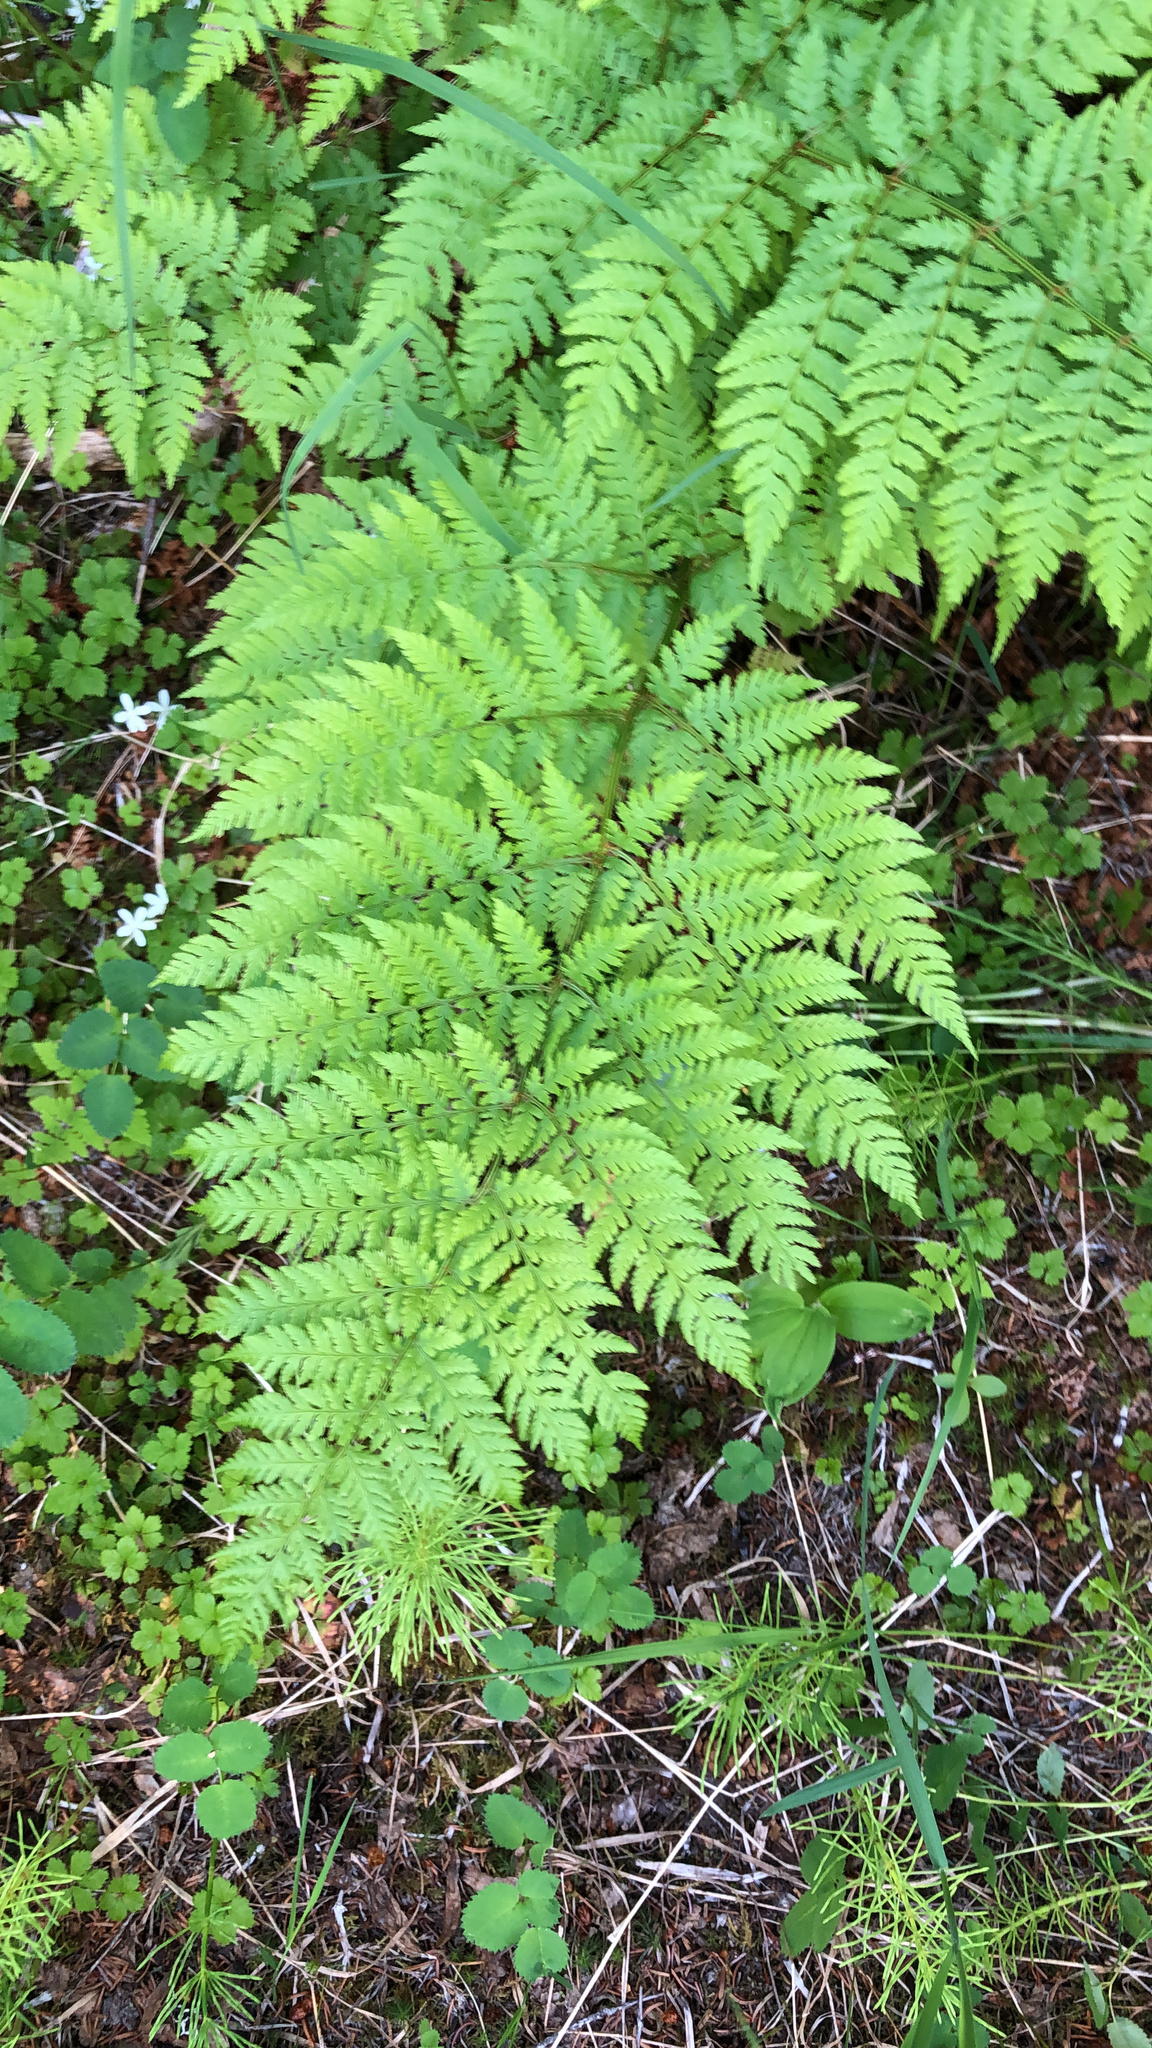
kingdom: Plantae
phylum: Tracheophyta
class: Polypodiopsida
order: Polypodiales
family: Dryopteridaceae
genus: Dryopteris
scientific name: Dryopteris expansa
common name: Northern buckler fern
